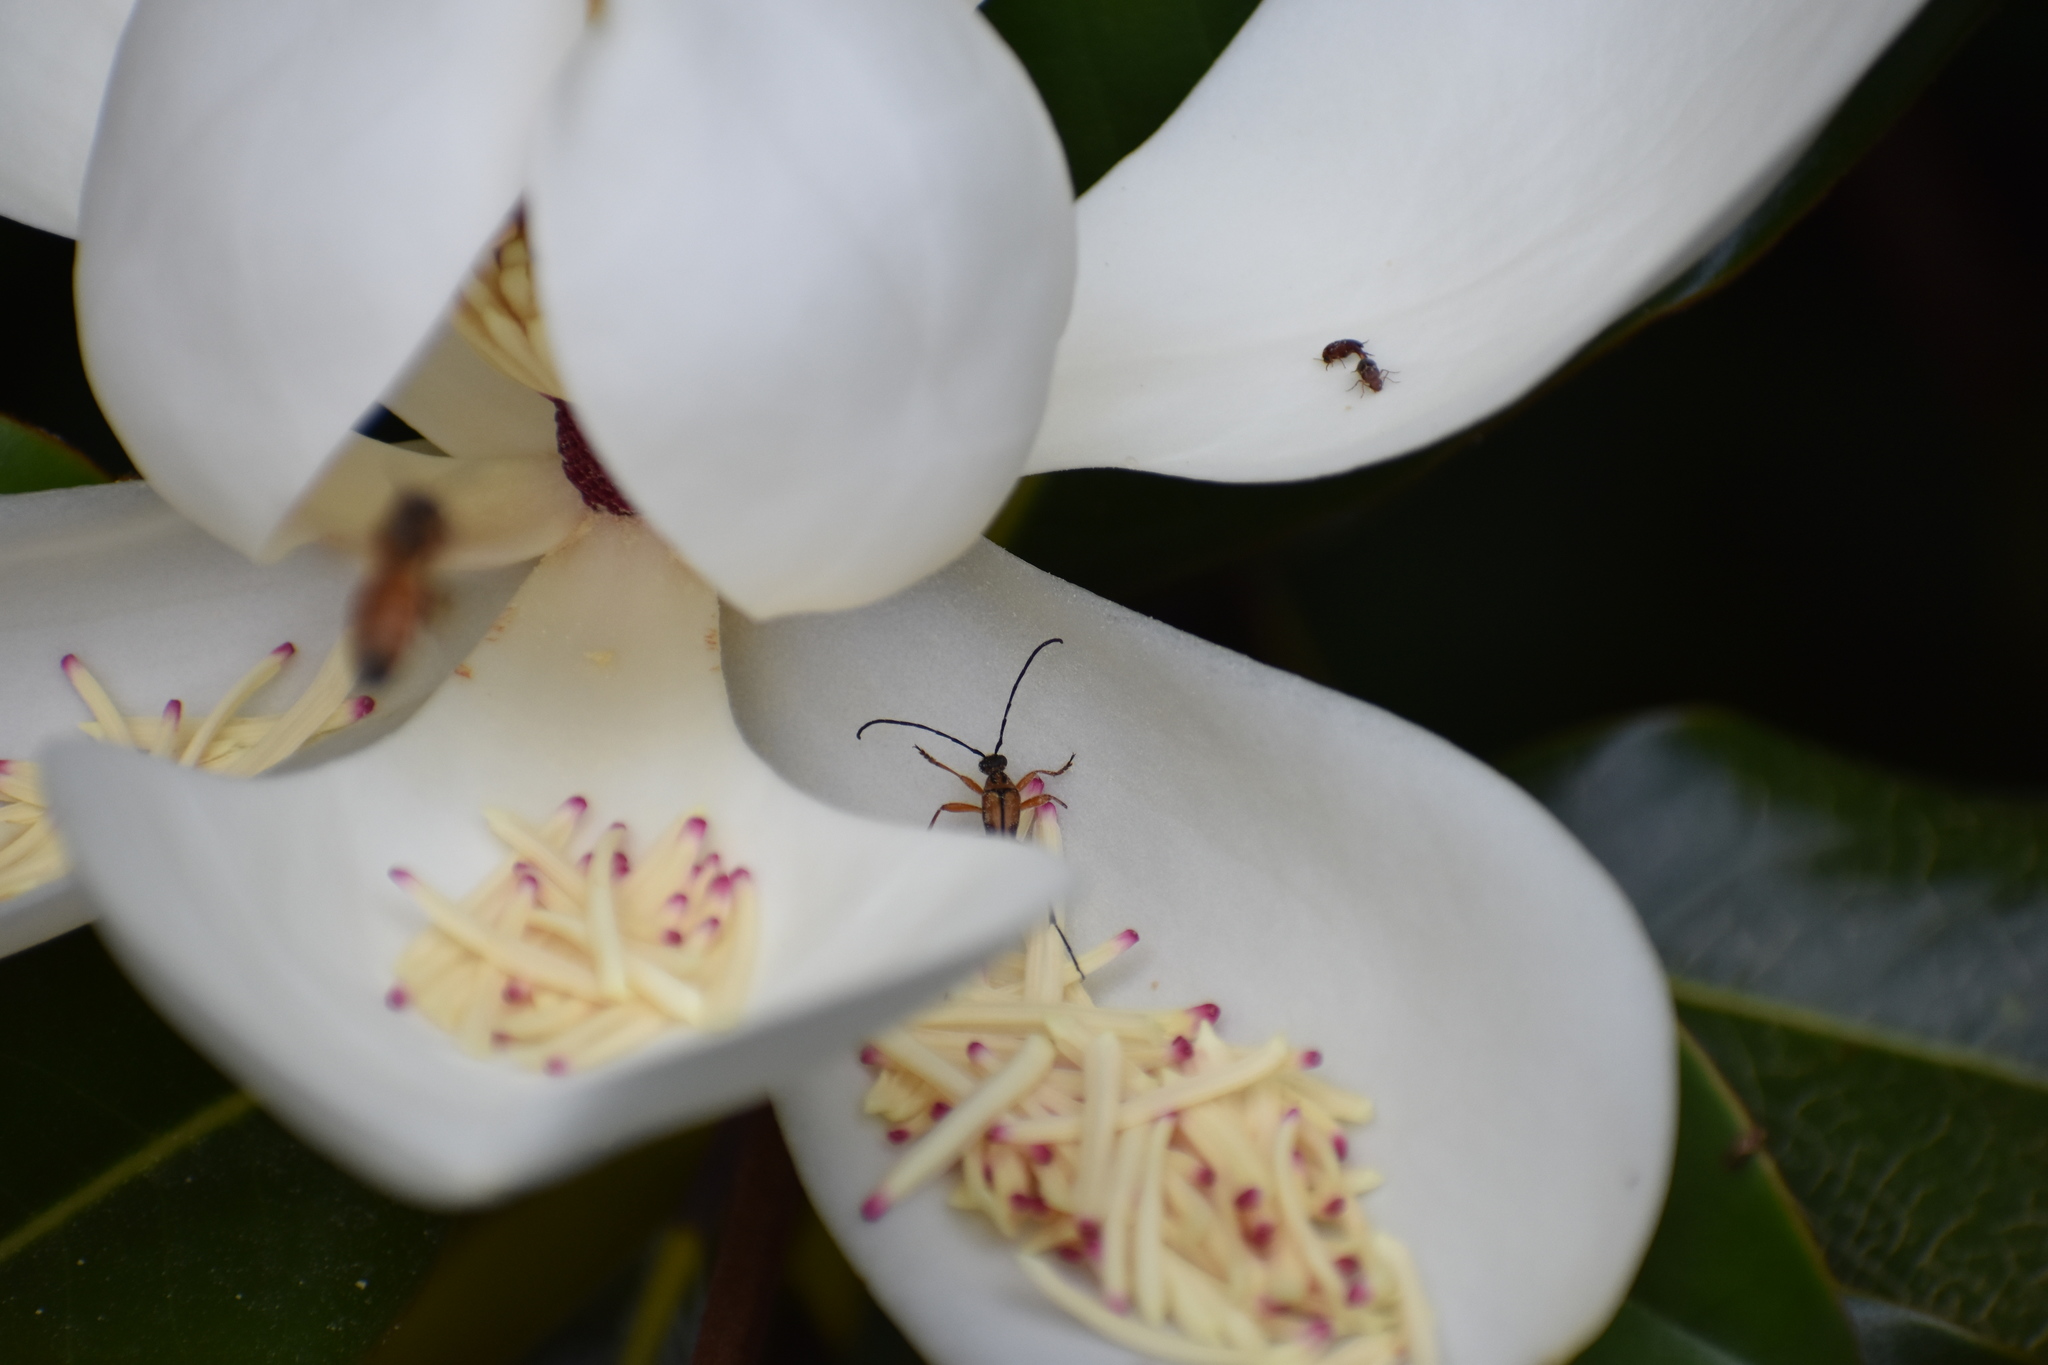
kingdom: Animalia
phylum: Arthropoda
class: Insecta
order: Coleoptera
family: Cerambycidae
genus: Strangalia
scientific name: Strangalia famelica
